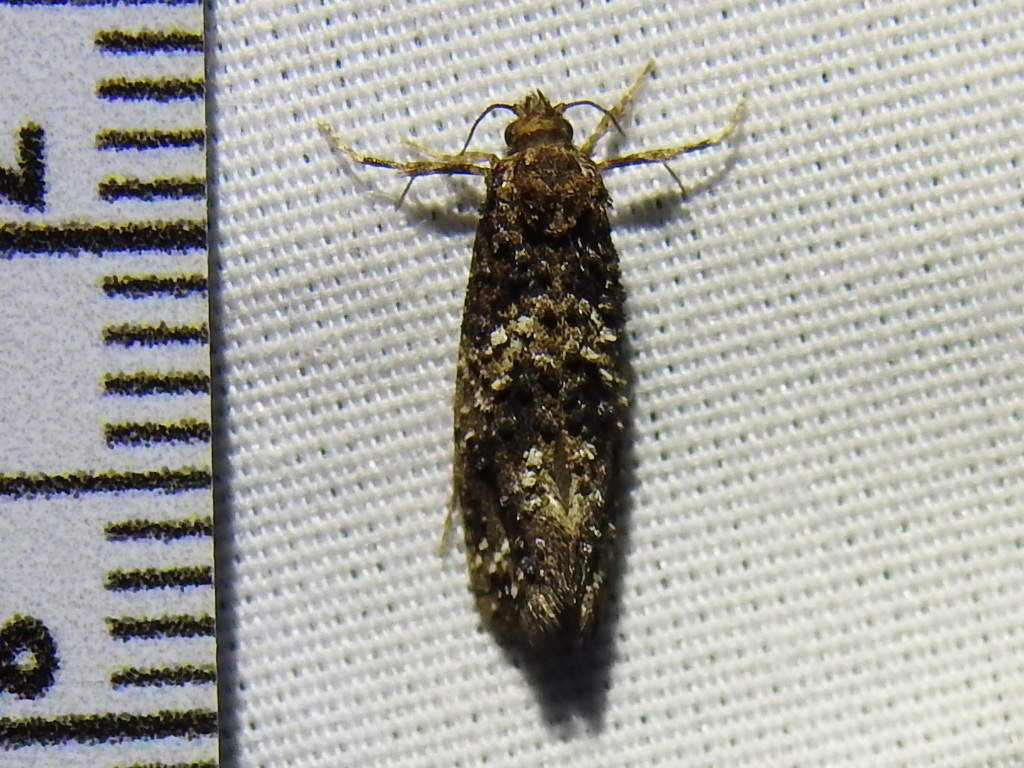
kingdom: Animalia
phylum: Arthropoda
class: Insecta
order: Lepidoptera
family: Tineidae
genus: Acrolophus
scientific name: Acrolophus cressoni
